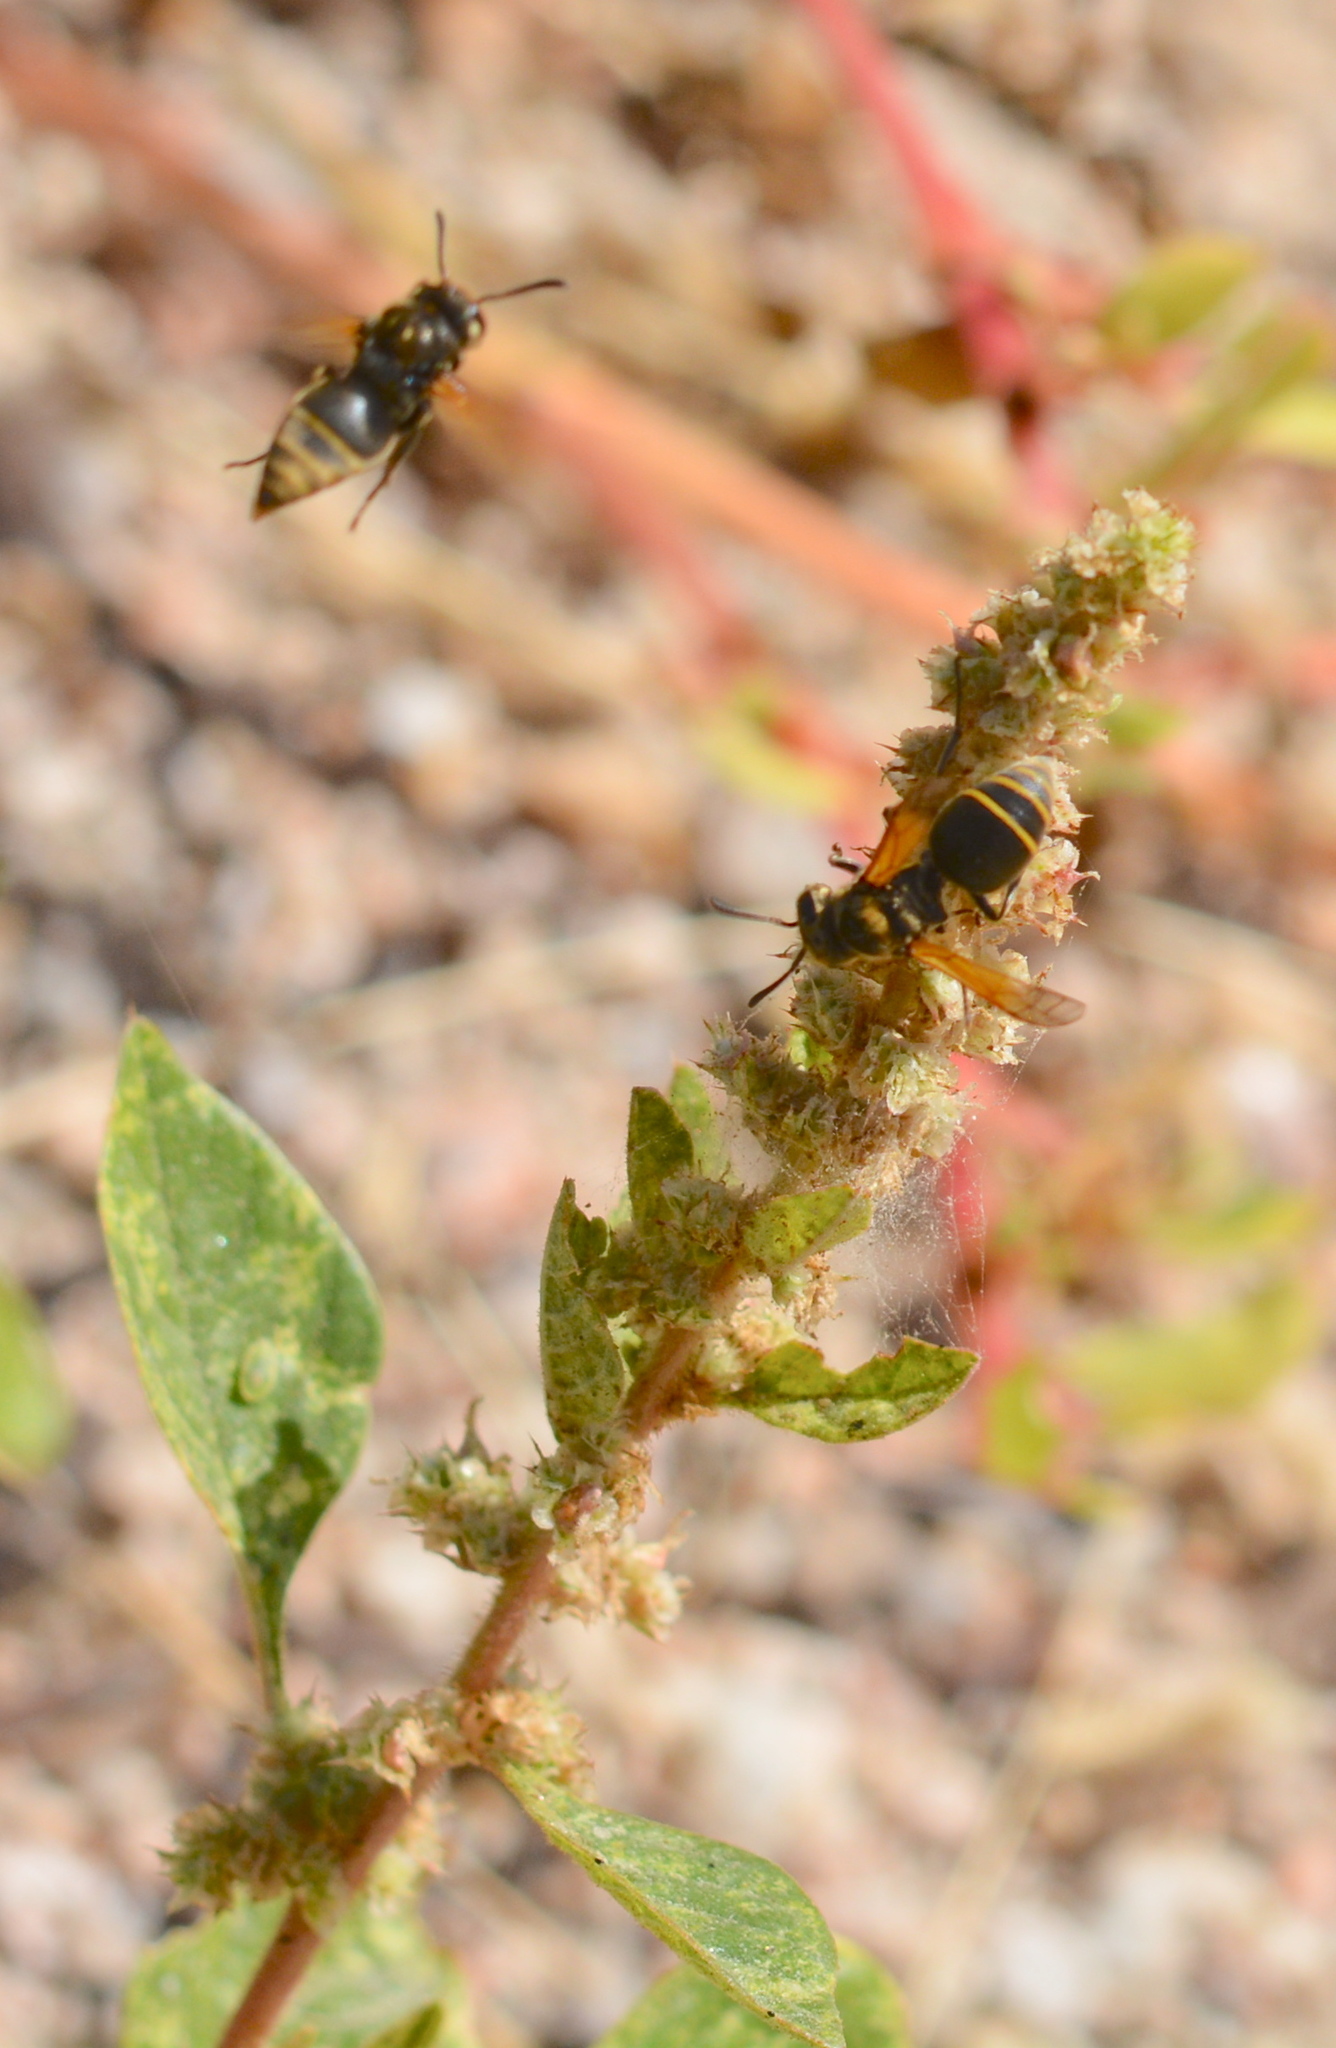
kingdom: Animalia
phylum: Arthropoda
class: Insecta
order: Hymenoptera
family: Vespidae
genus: Brachygastra
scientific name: Brachygastra mellifica
